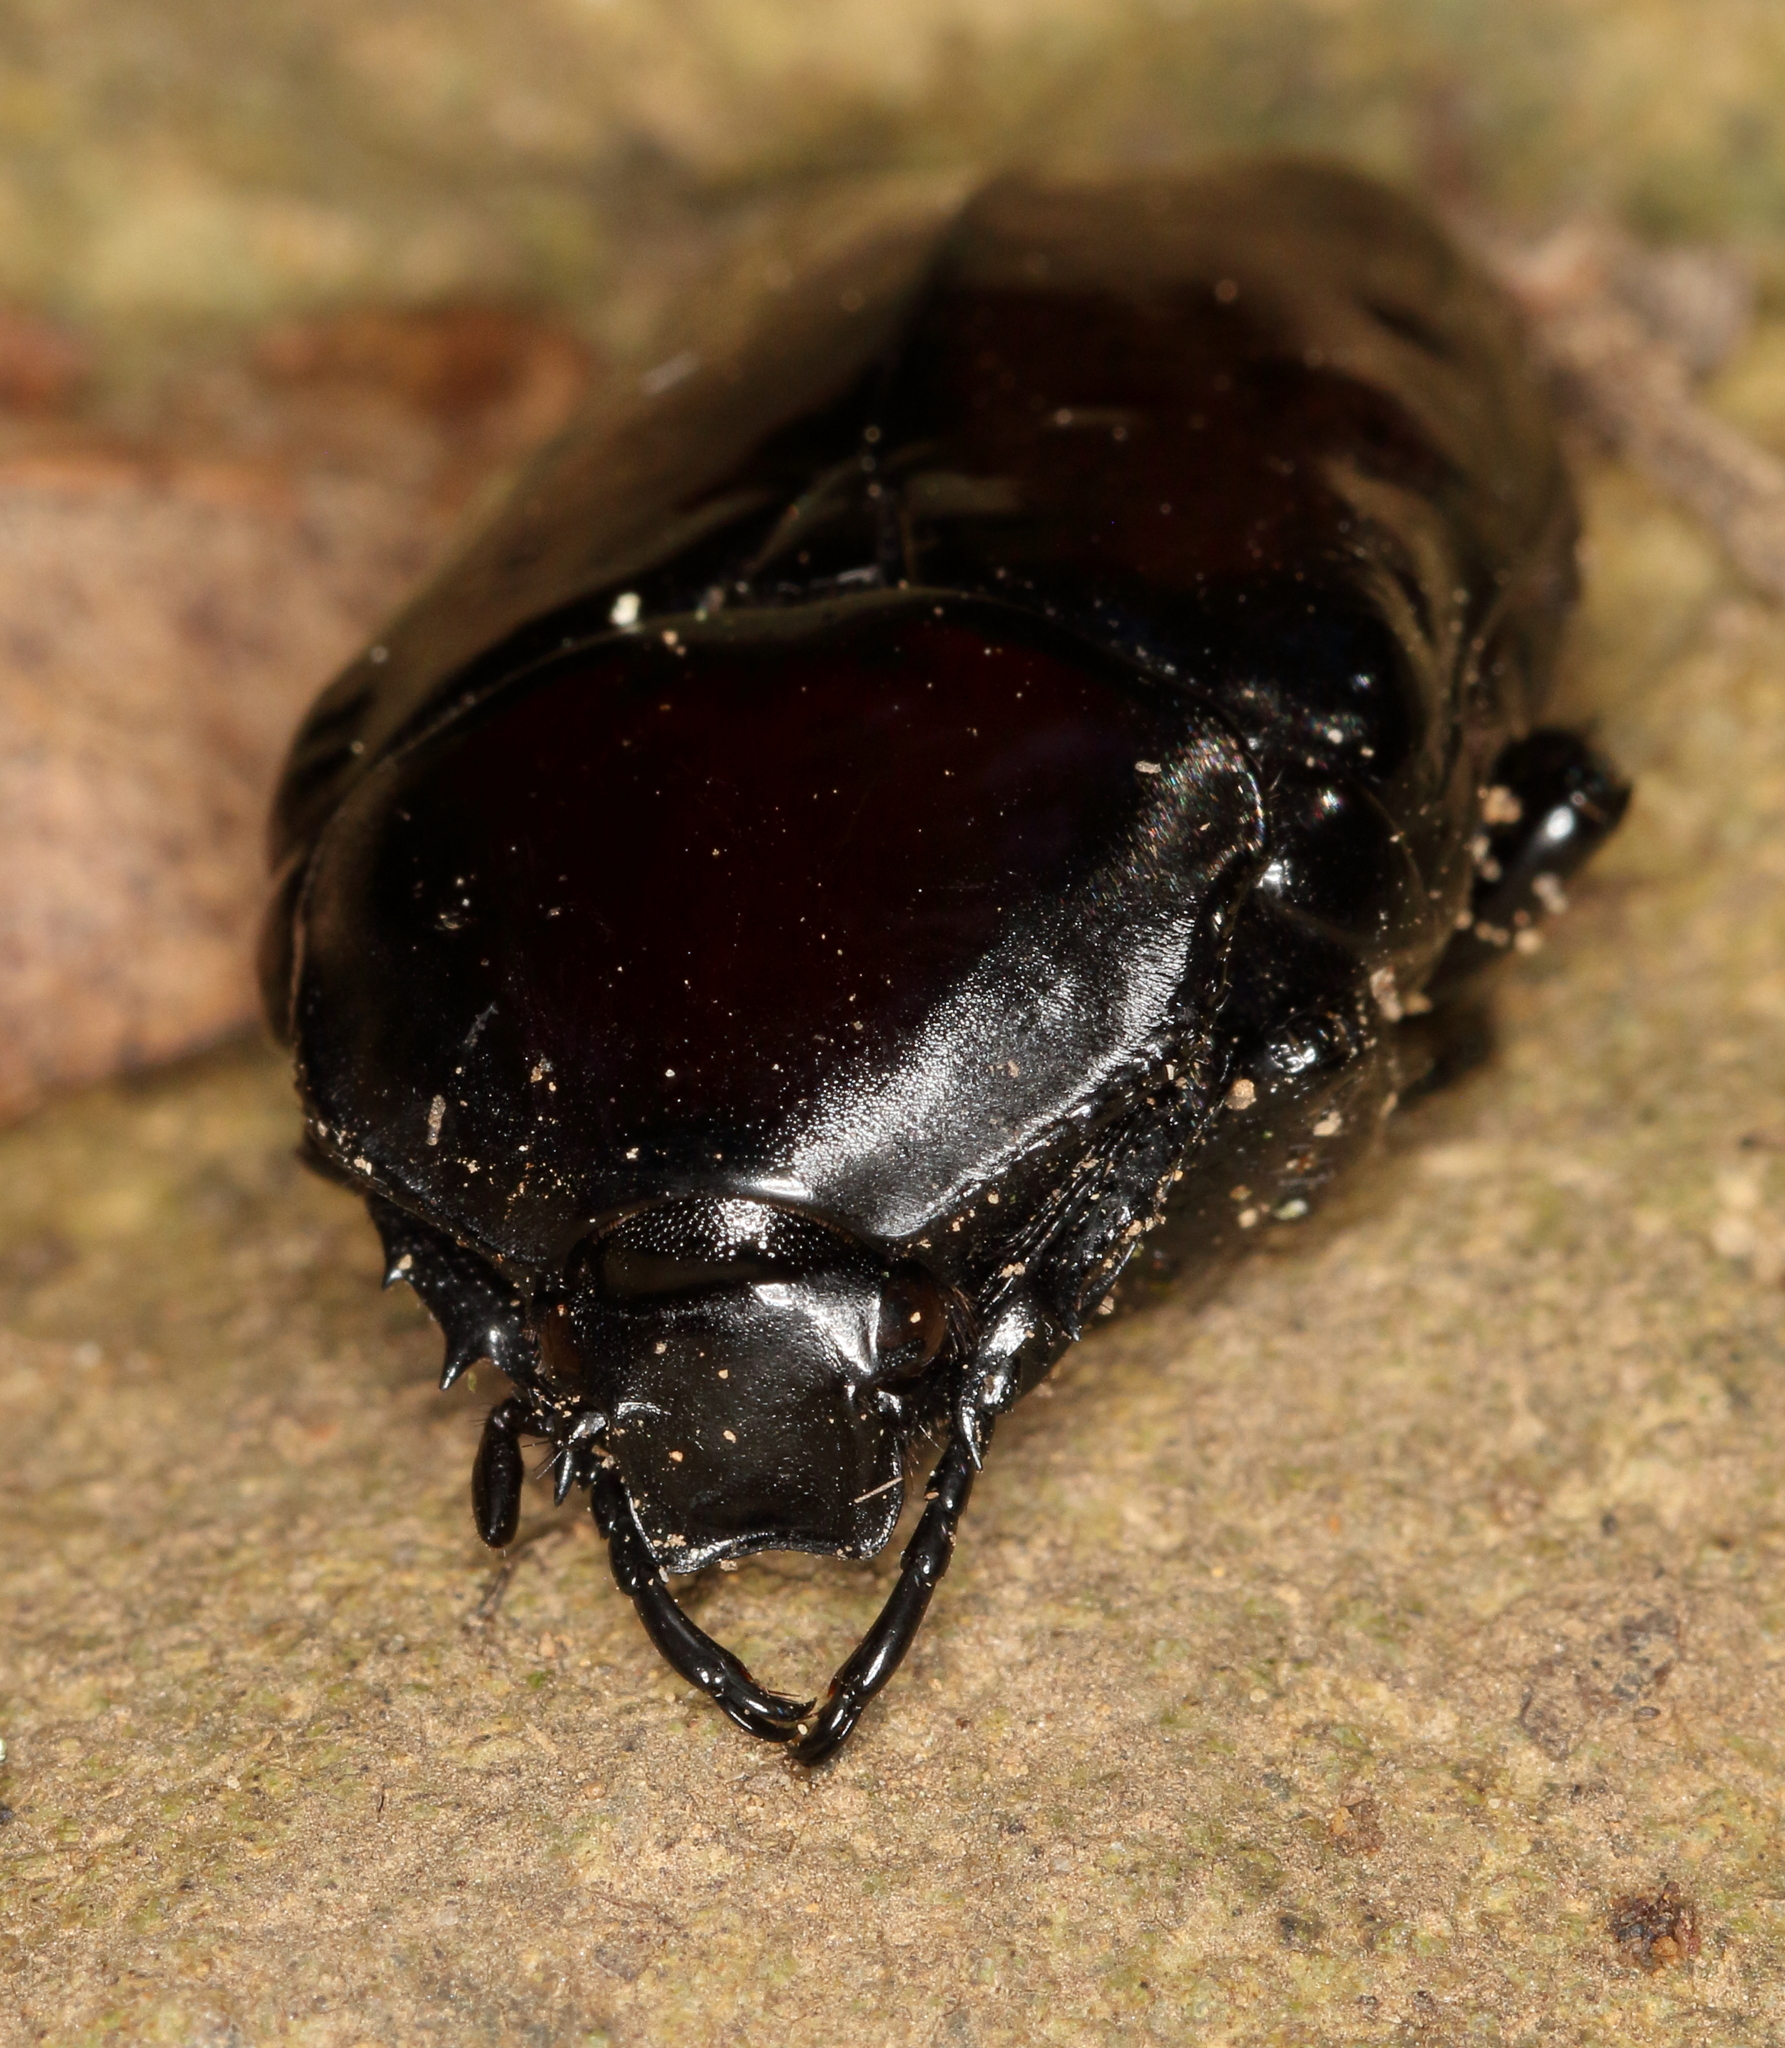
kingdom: Animalia
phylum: Arthropoda
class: Insecta
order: Coleoptera
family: Scarabaeidae
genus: Diplognatha
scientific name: Diplognatha gagates
